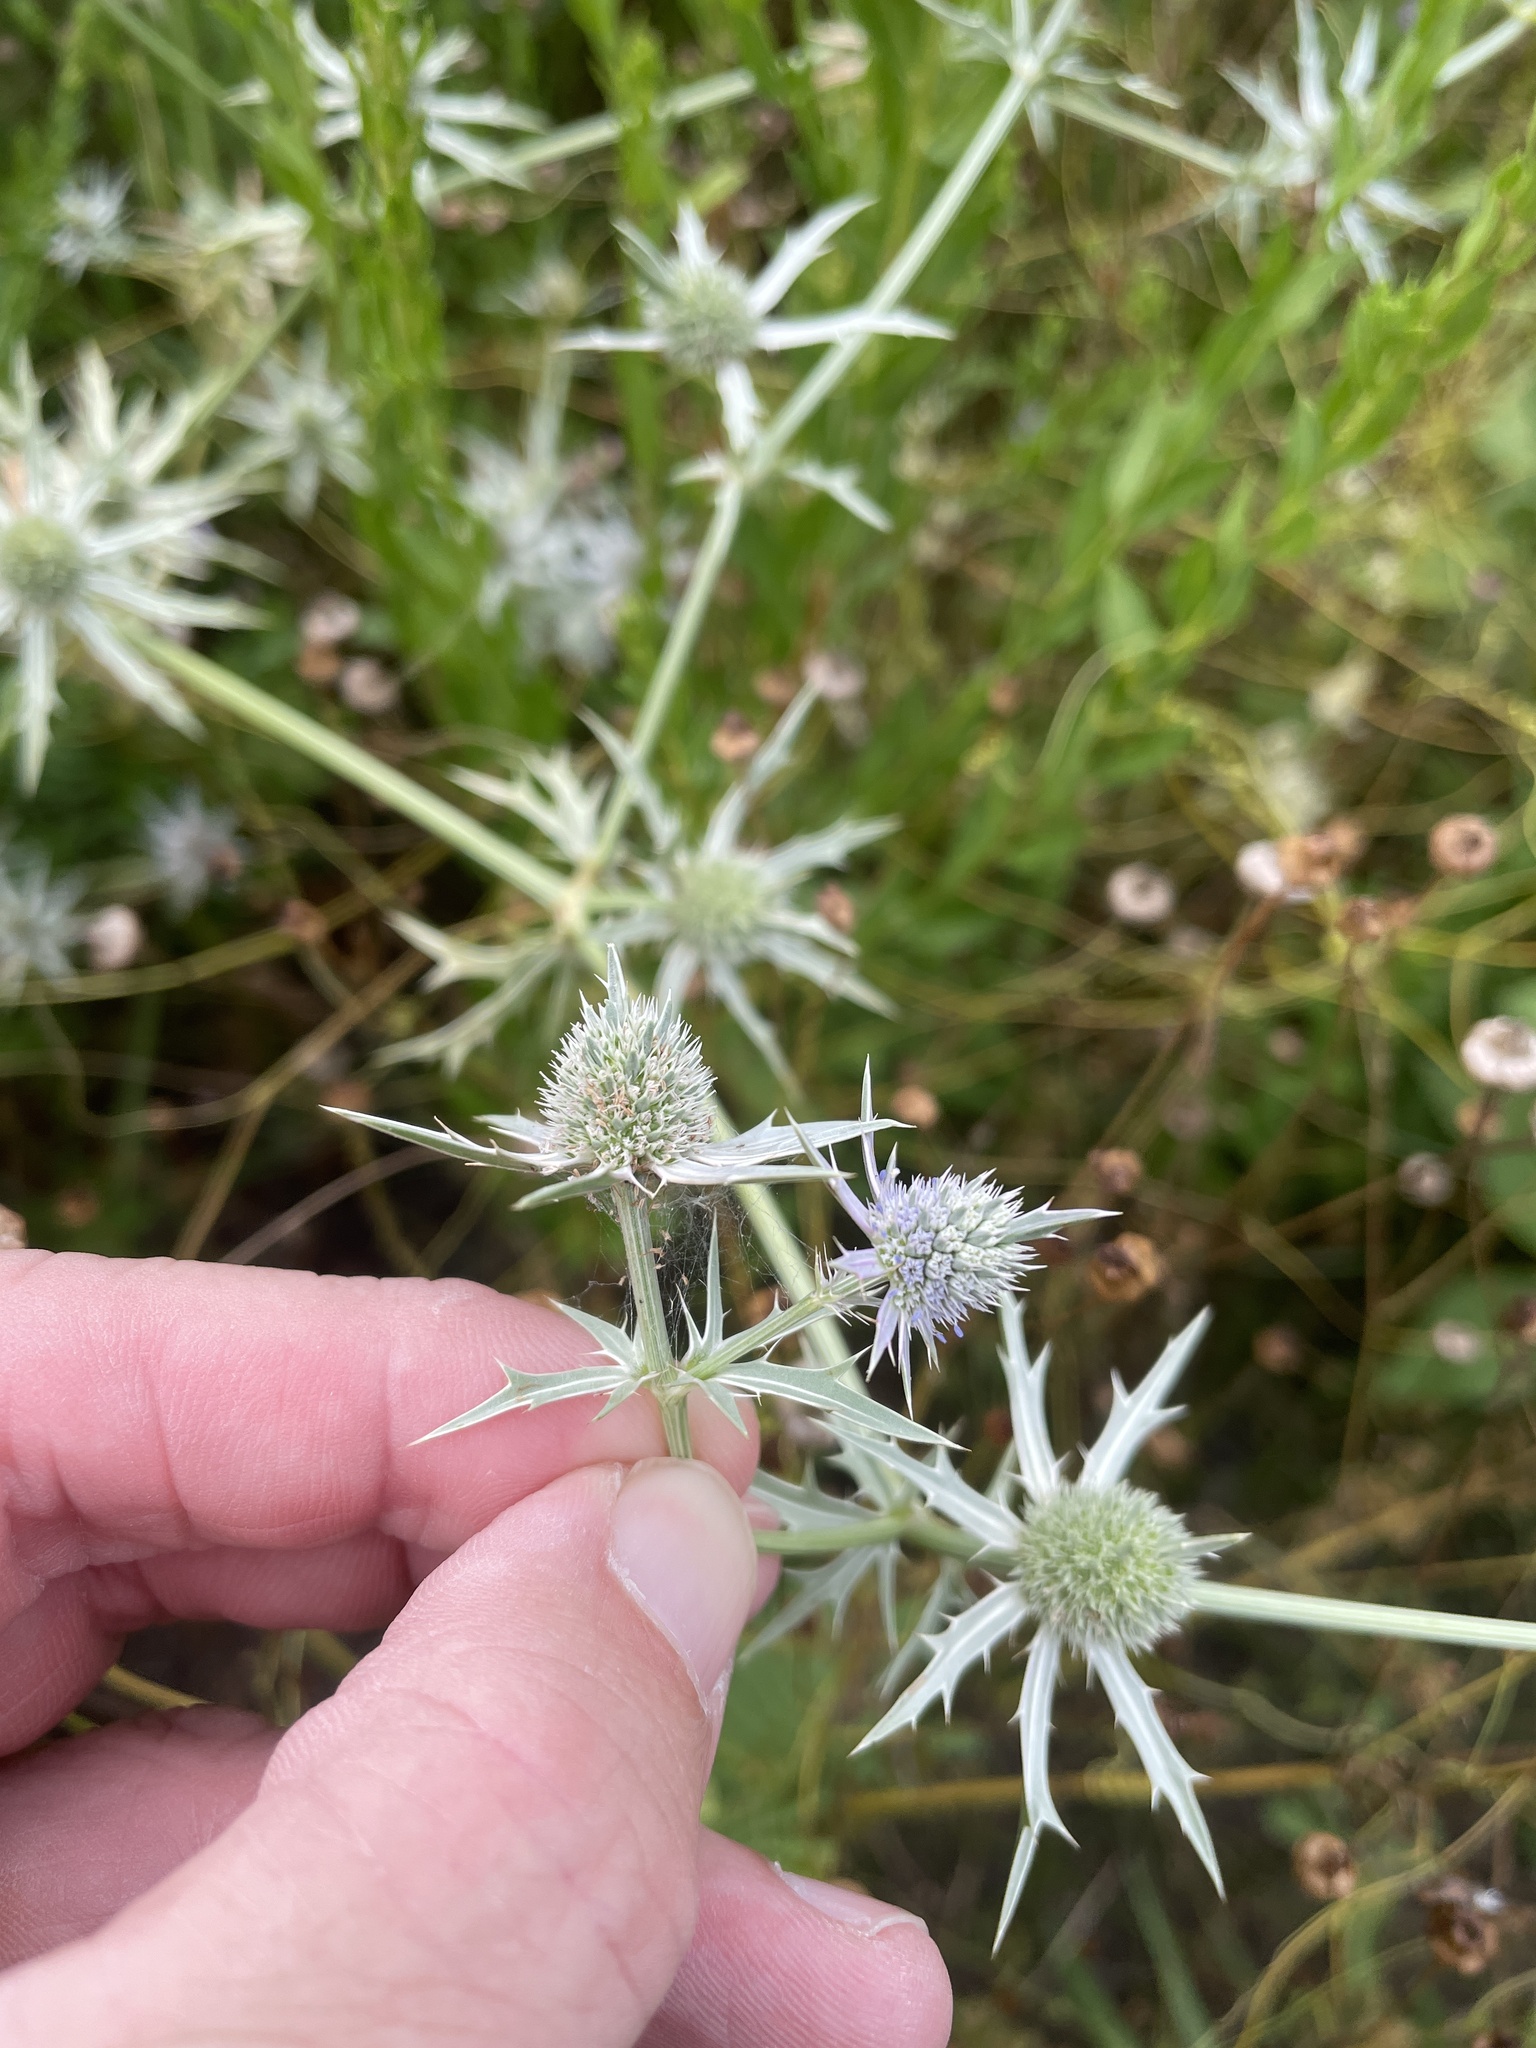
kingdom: Plantae
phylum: Tracheophyta
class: Magnoliopsida
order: Apiales
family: Apiaceae
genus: Eryngium
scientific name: Eryngium hookeri
